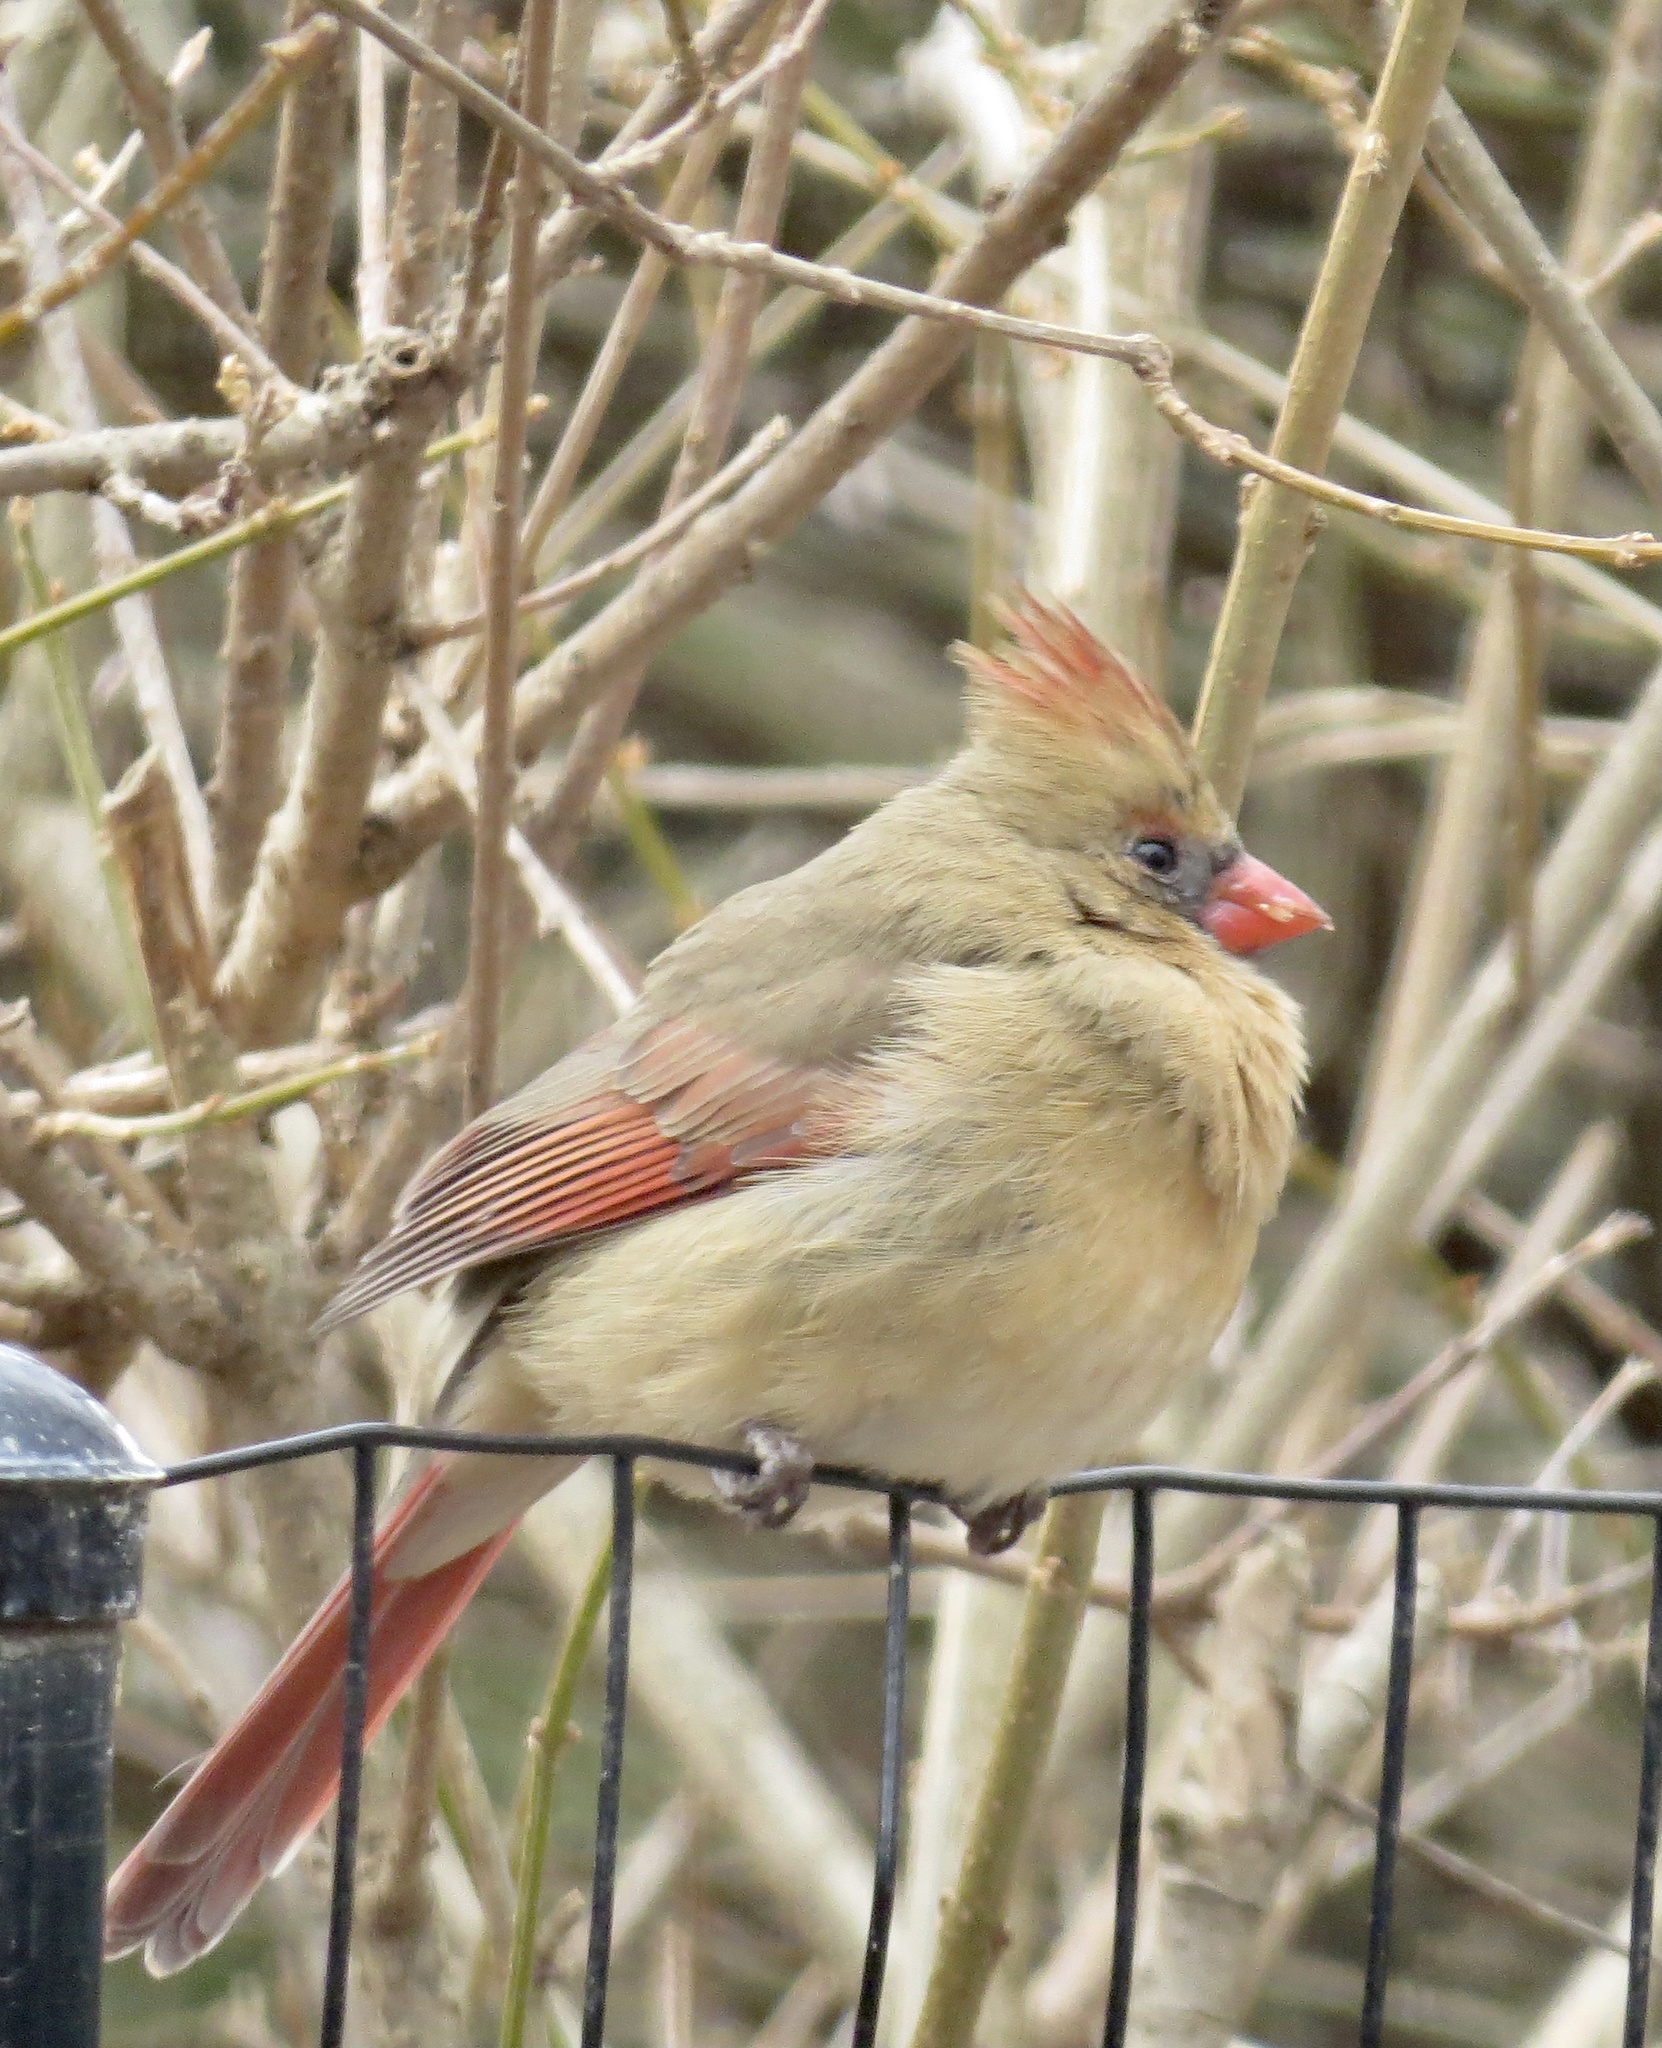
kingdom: Animalia
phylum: Chordata
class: Aves
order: Passeriformes
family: Cardinalidae
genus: Cardinalis
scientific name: Cardinalis cardinalis
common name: Northern cardinal
